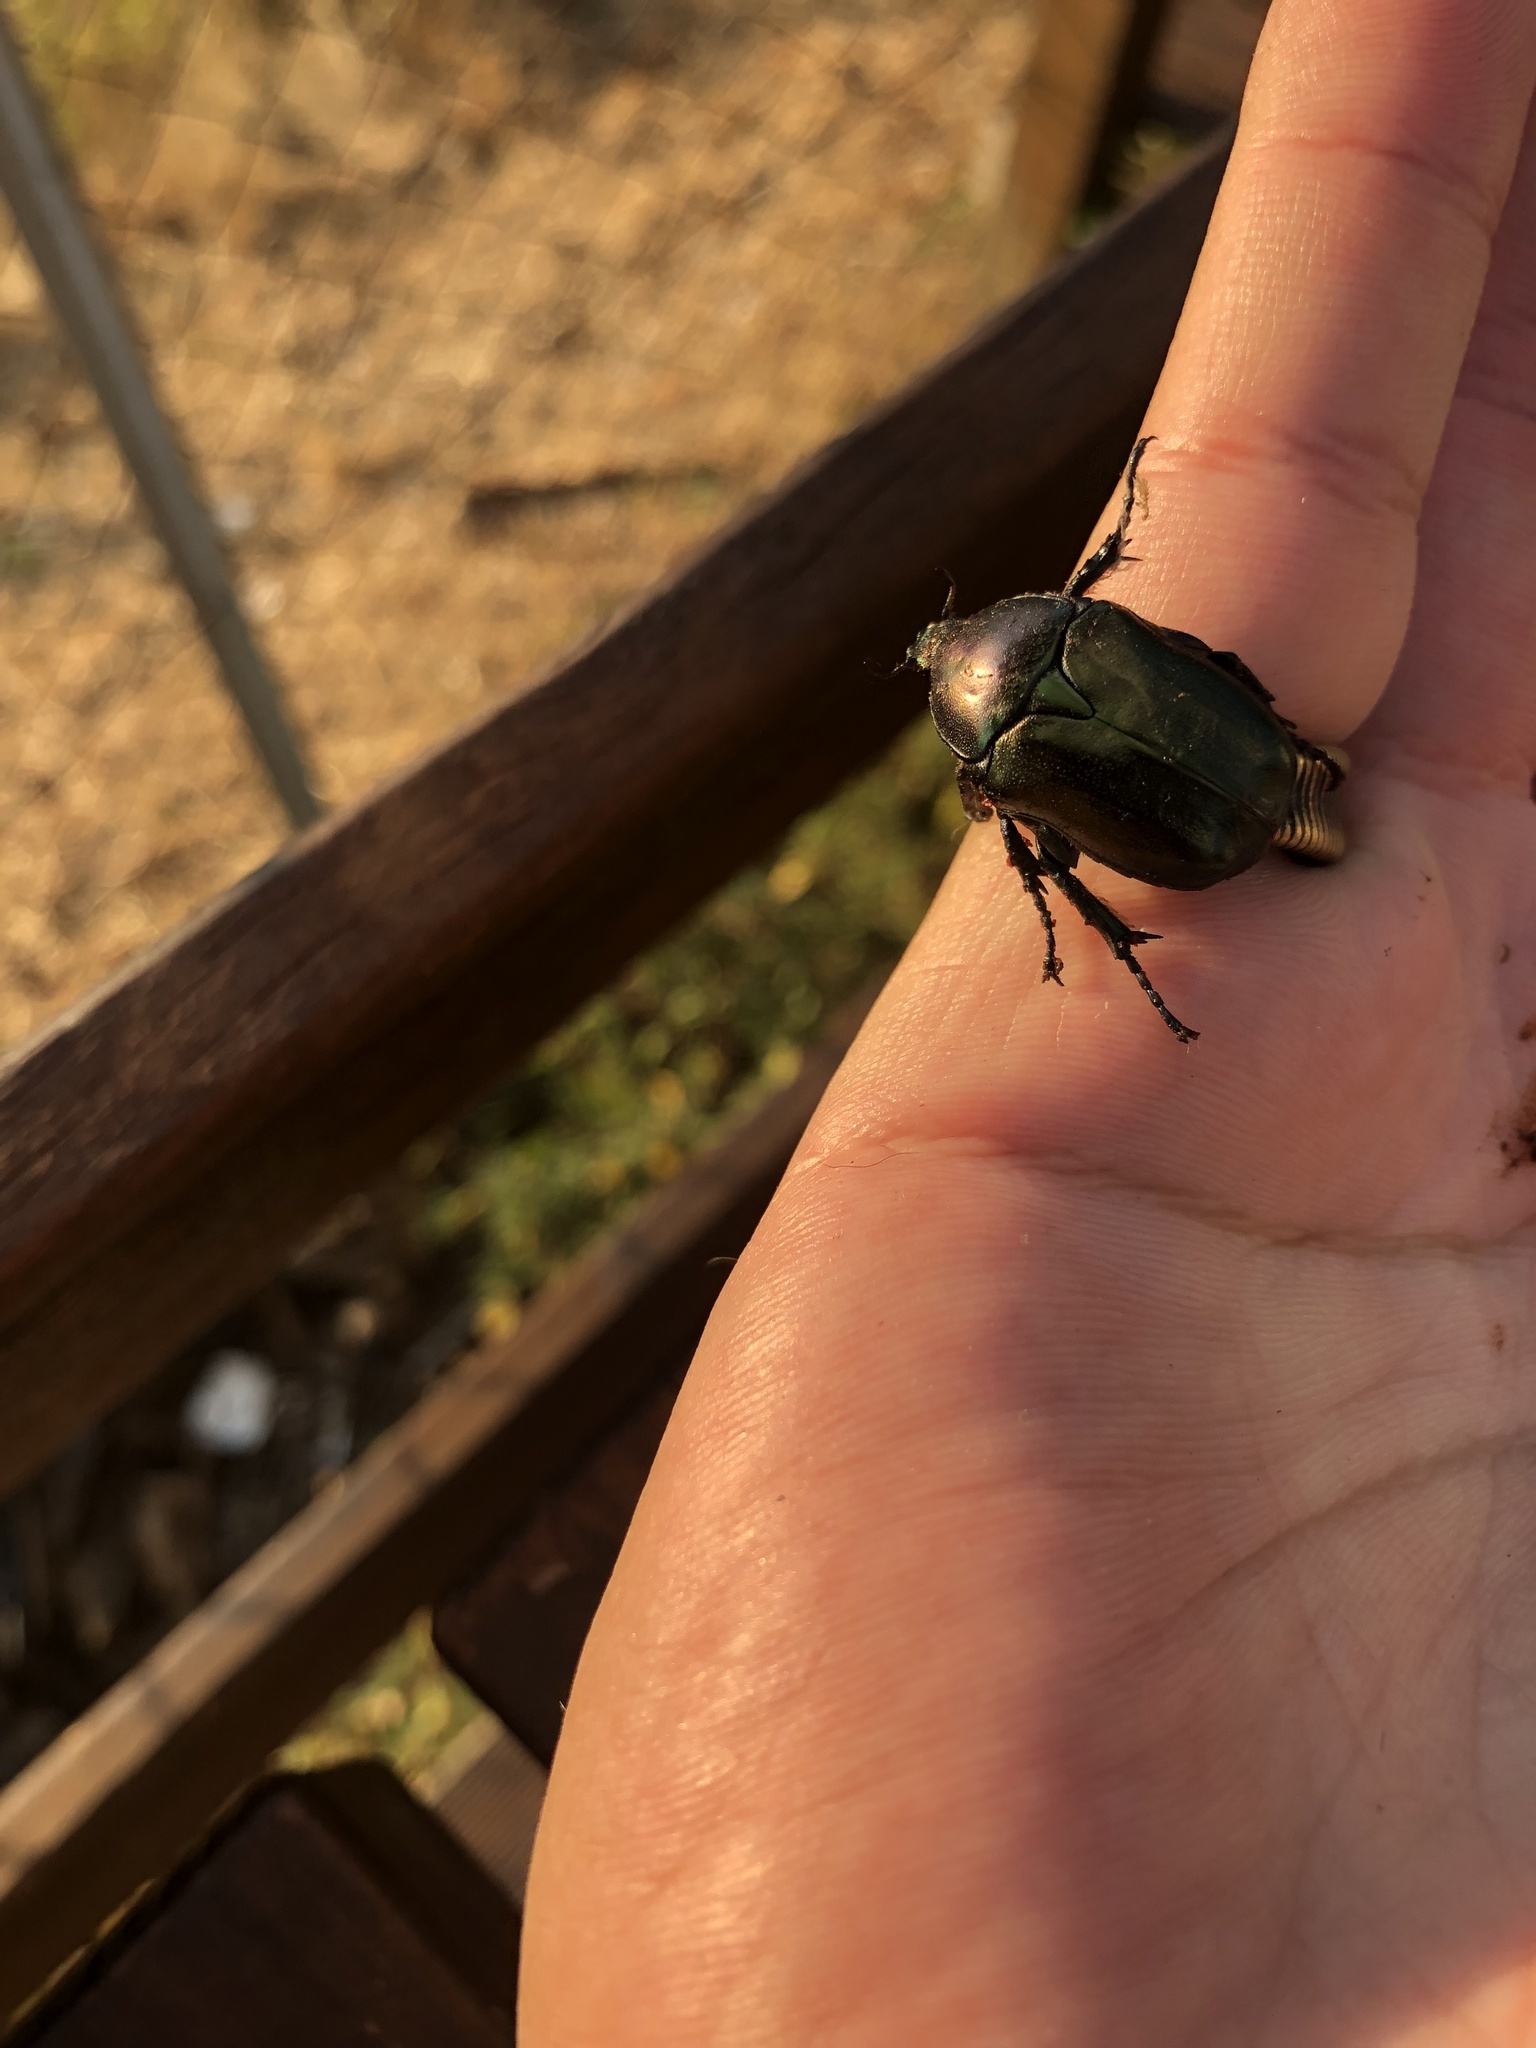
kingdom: Animalia
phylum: Arthropoda
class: Insecta
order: Coleoptera
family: Scarabaeidae
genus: Protaetia
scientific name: Protaetia angustata
